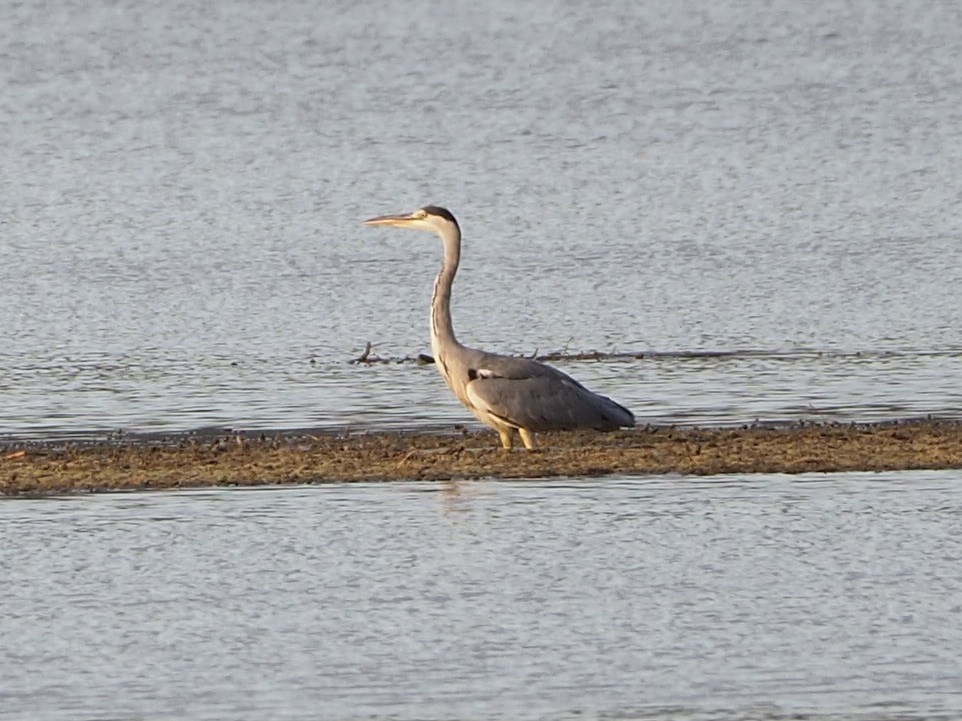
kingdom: Animalia
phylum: Chordata
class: Aves
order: Pelecaniformes
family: Ardeidae
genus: Ardea
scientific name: Ardea cinerea
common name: Grey heron
